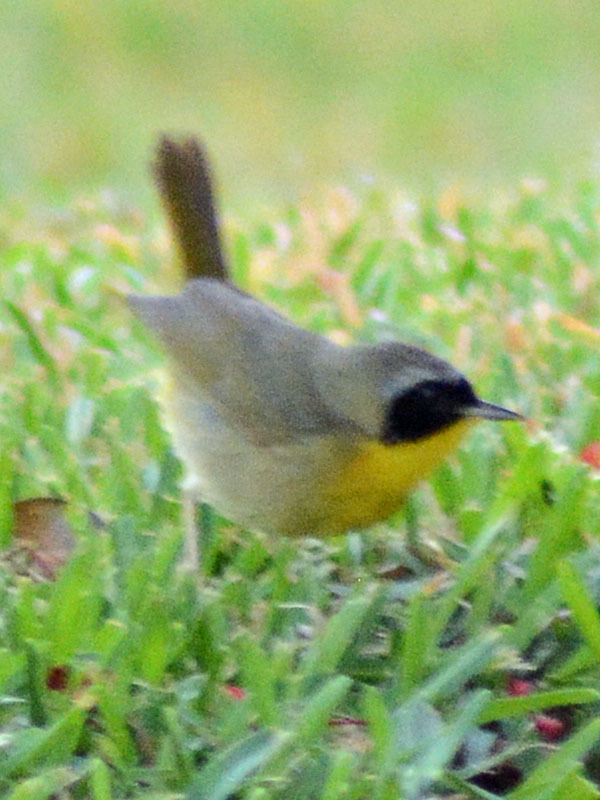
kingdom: Animalia
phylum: Chordata
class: Aves
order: Passeriformes
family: Parulidae
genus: Geothlypis
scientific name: Geothlypis trichas
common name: Common yellowthroat
